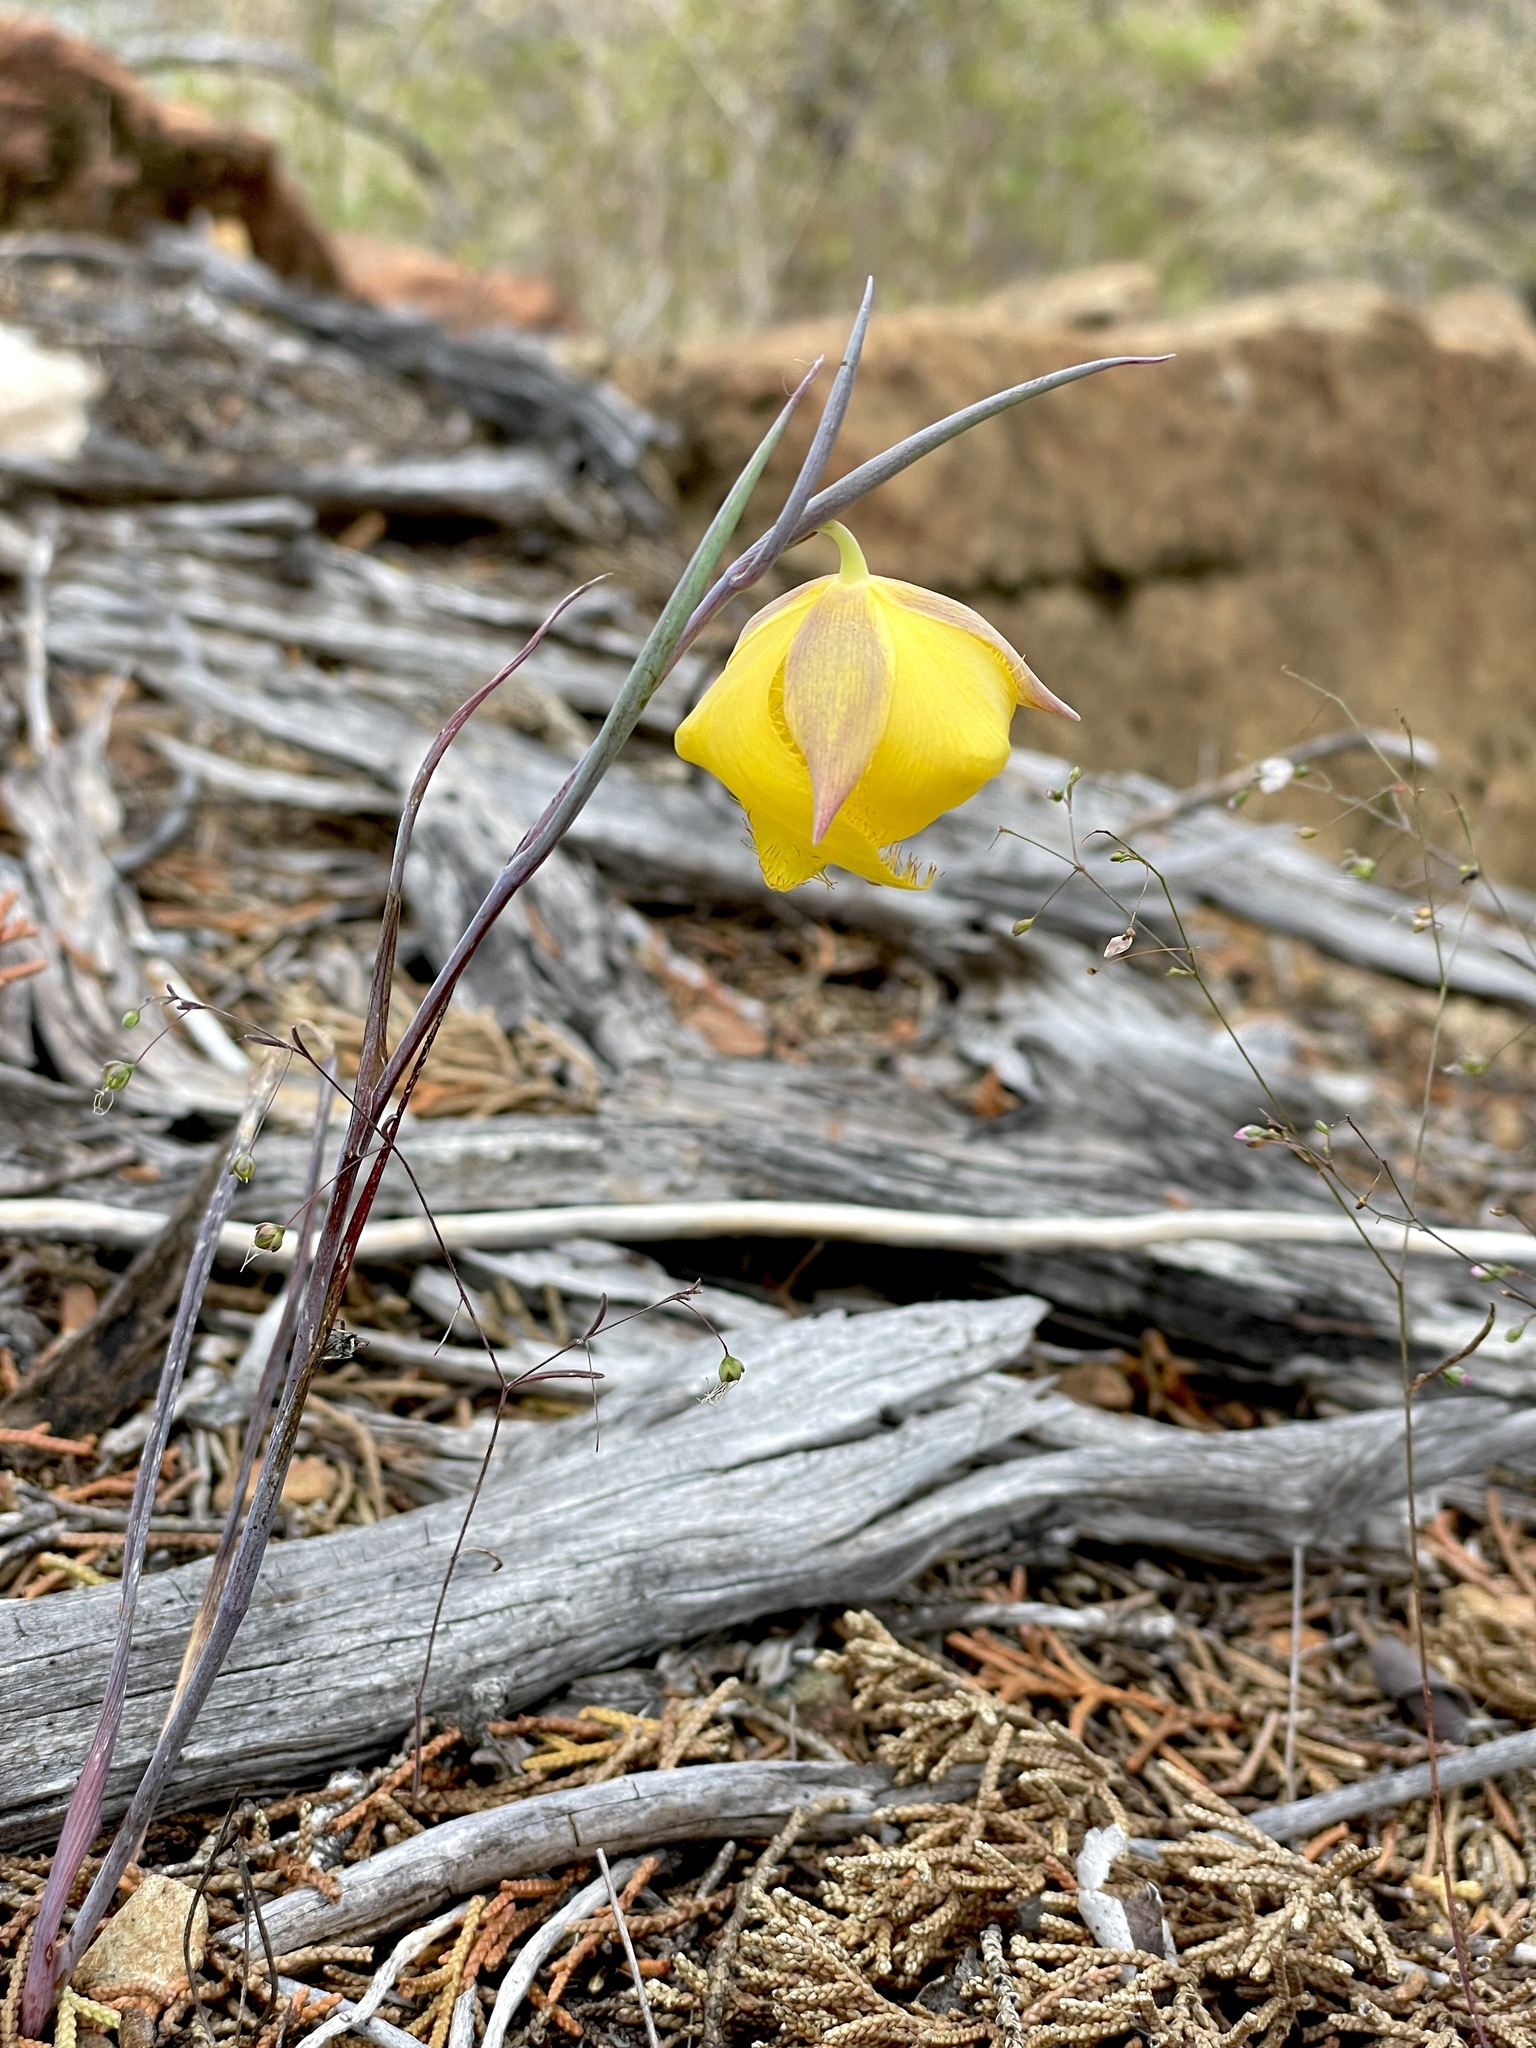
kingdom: Plantae
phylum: Tracheophyta
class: Liliopsida
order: Liliales
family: Liliaceae
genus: Calochortus
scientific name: Calochortus raichei
